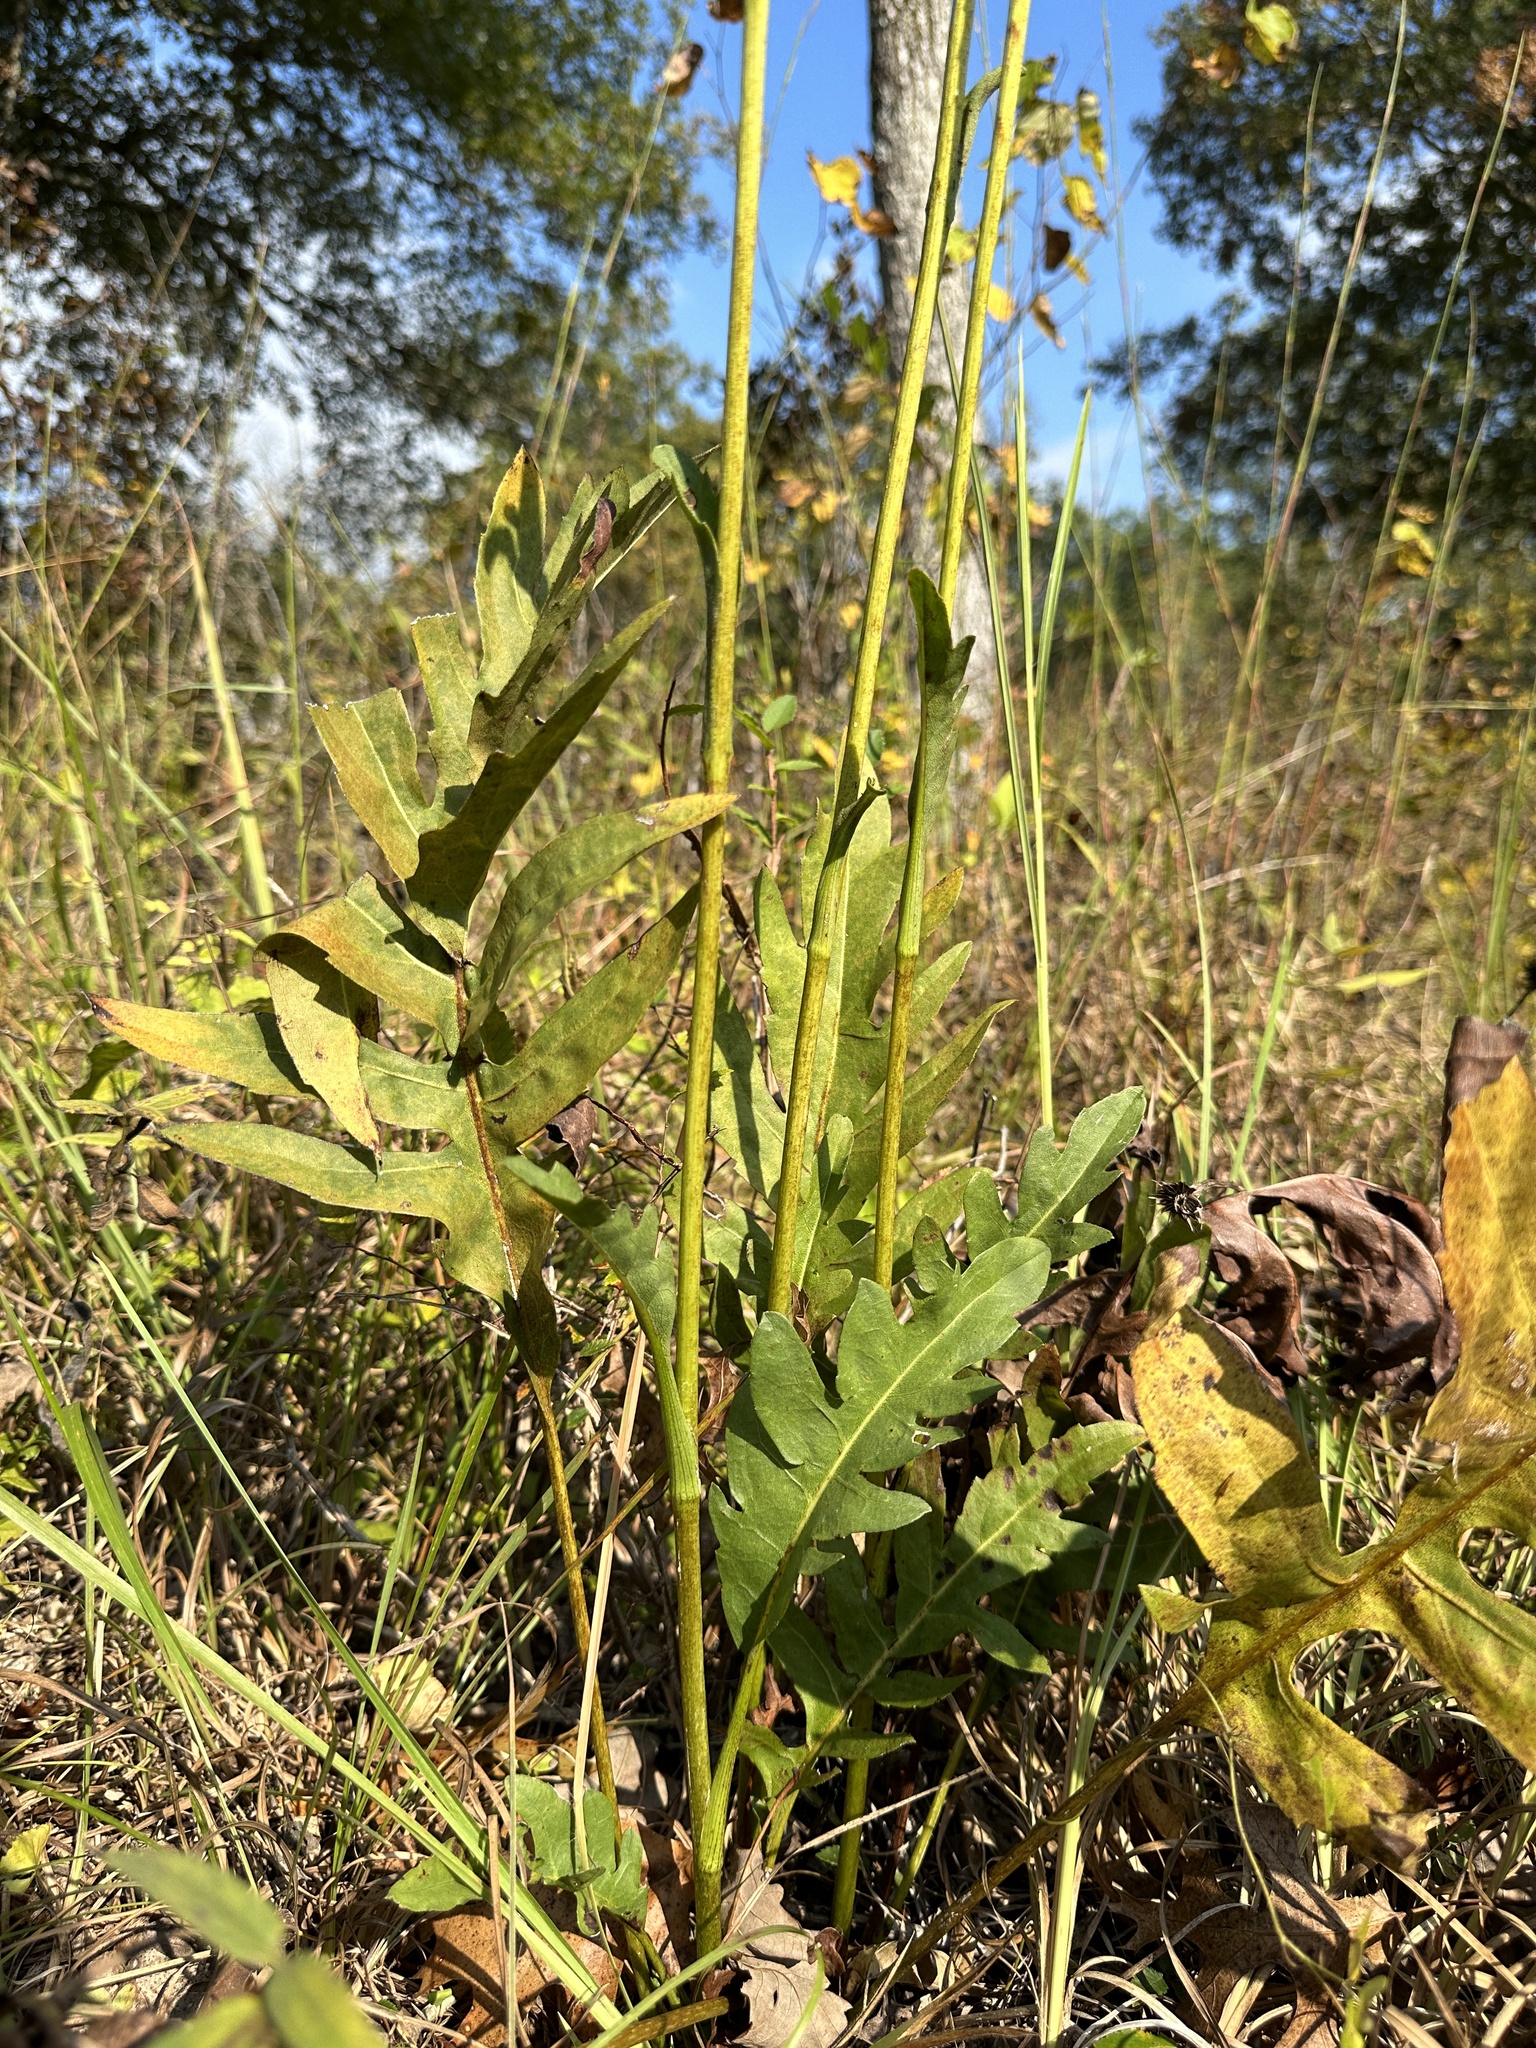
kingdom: Plantae
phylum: Tracheophyta
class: Magnoliopsida
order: Asterales
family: Asteraceae
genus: Silphium
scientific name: Silphium pinnatifidum
